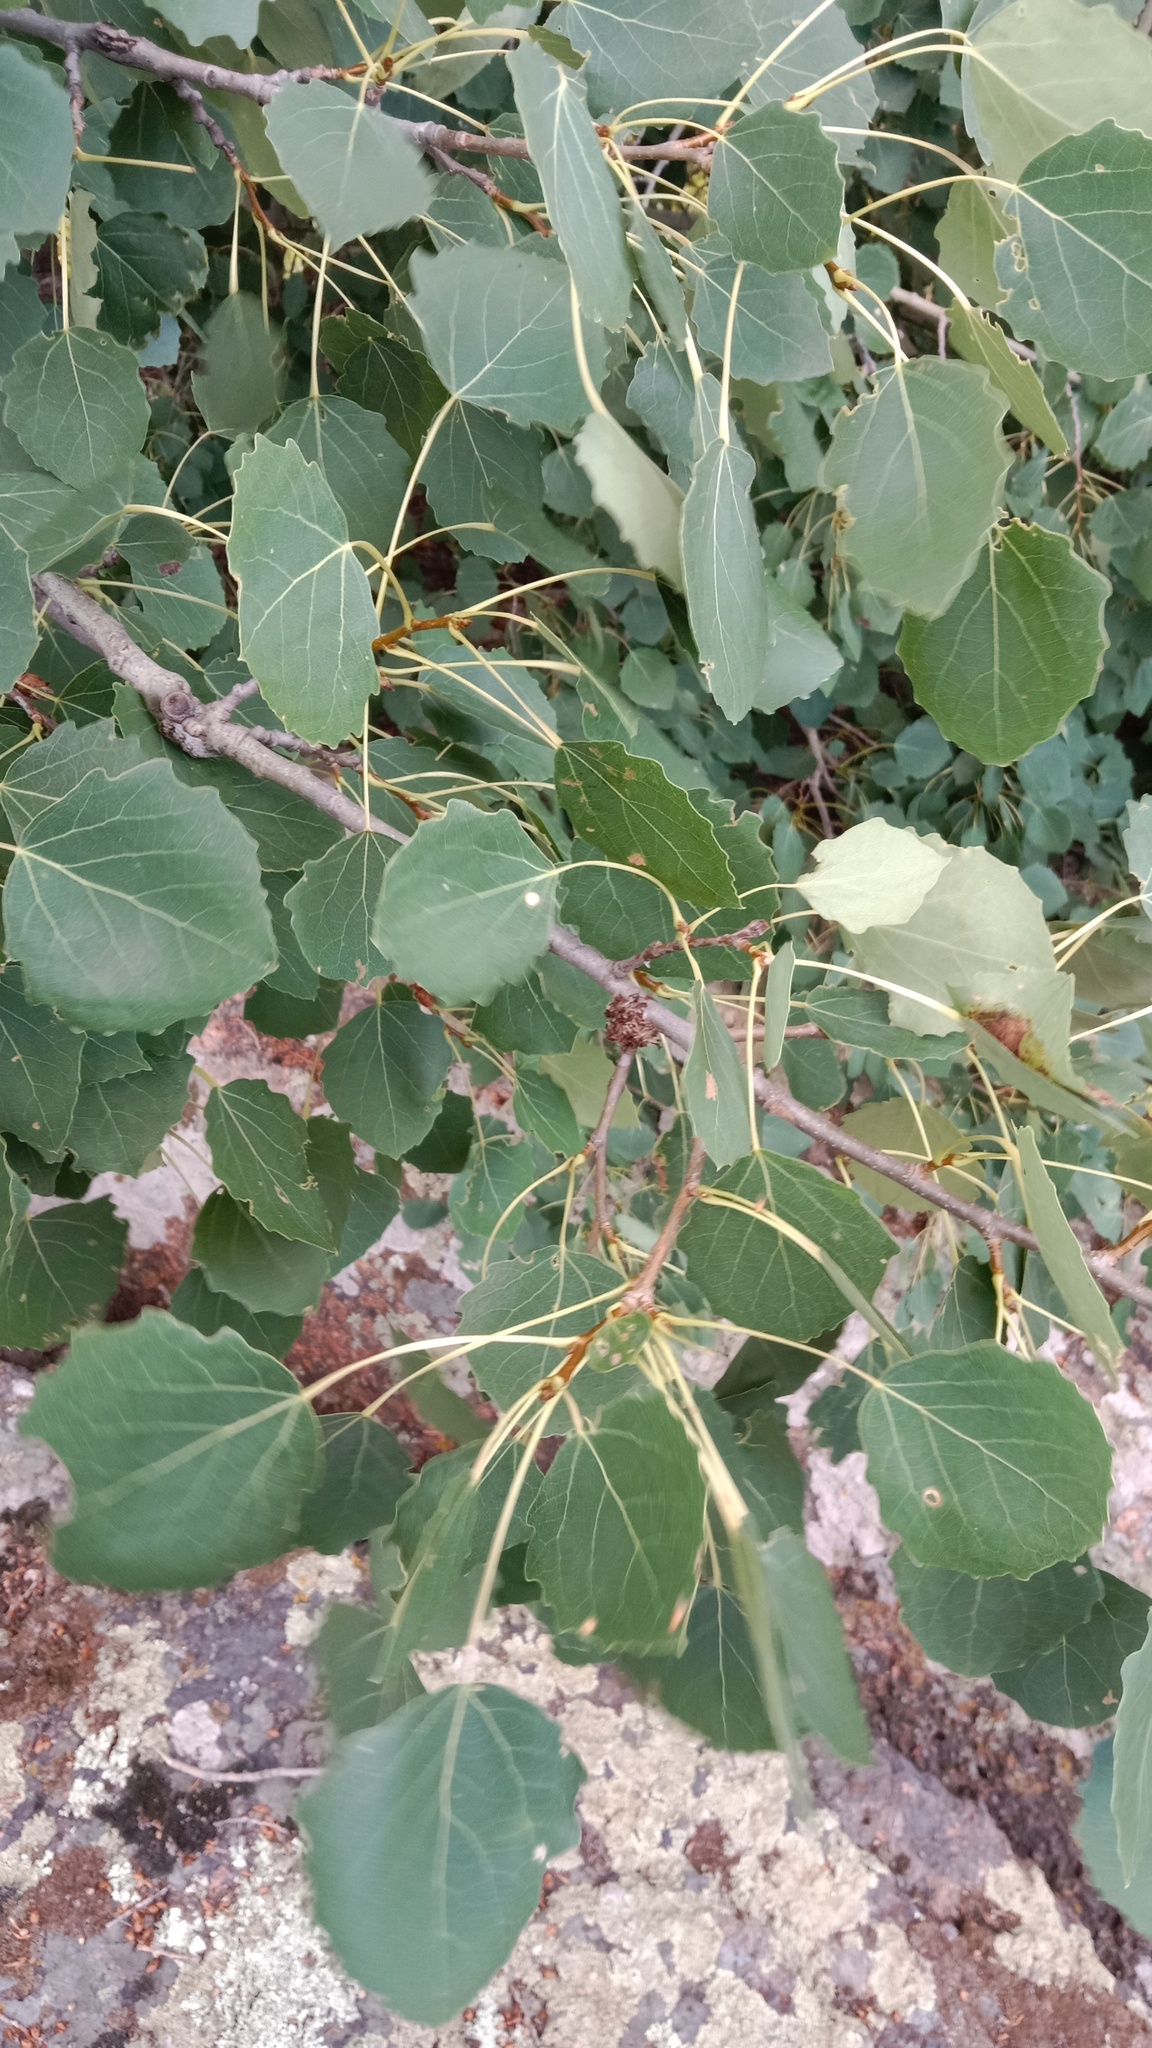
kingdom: Plantae
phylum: Tracheophyta
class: Magnoliopsida
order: Malpighiales
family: Salicaceae
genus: Populus
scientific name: Populus tremula
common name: European aspen
